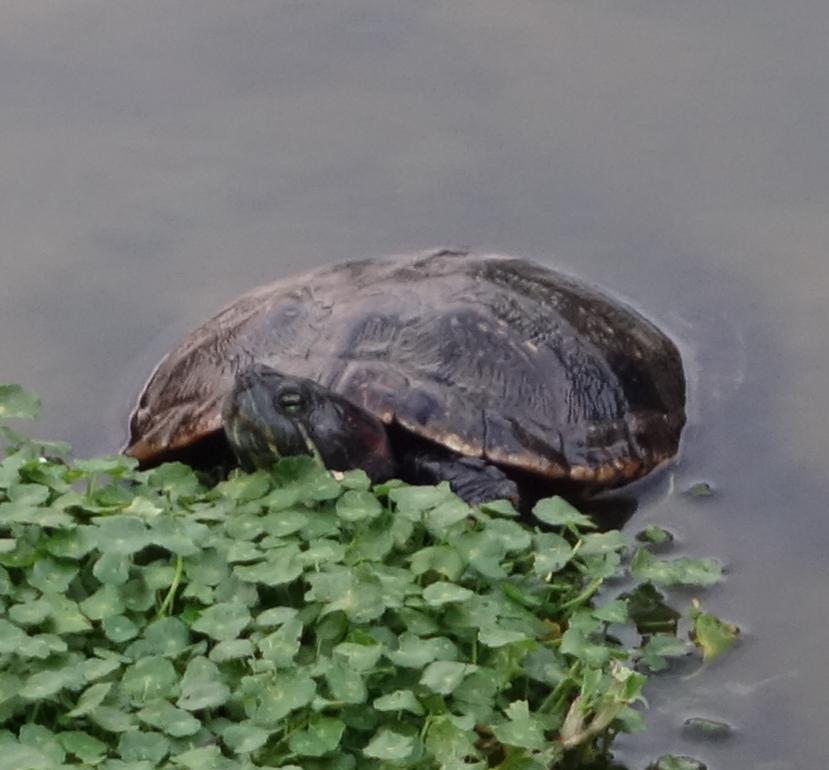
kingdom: Animalia
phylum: Chordata
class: Testudines
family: Emydidae
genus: Trachemys
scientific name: Trachemys scripta
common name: Slider
